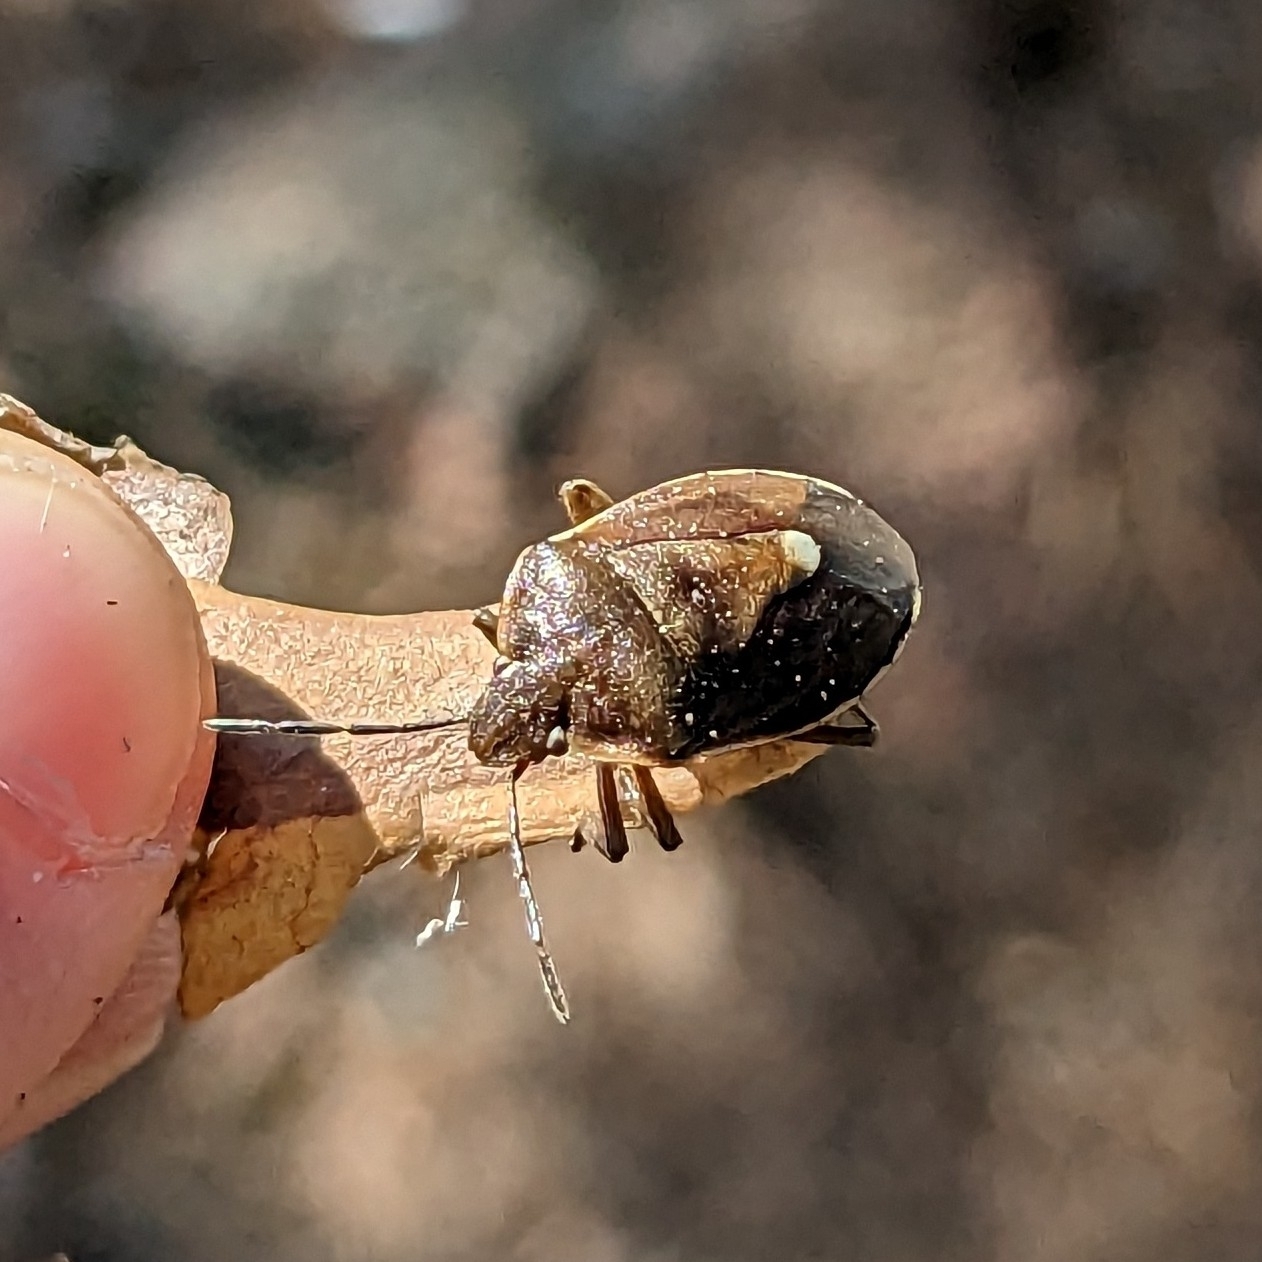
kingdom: Animalia
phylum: Arthropoda
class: Insecta
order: Hemiptera
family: Pentatomidae
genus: Chlorochroa
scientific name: Chlorochroa pinicola
